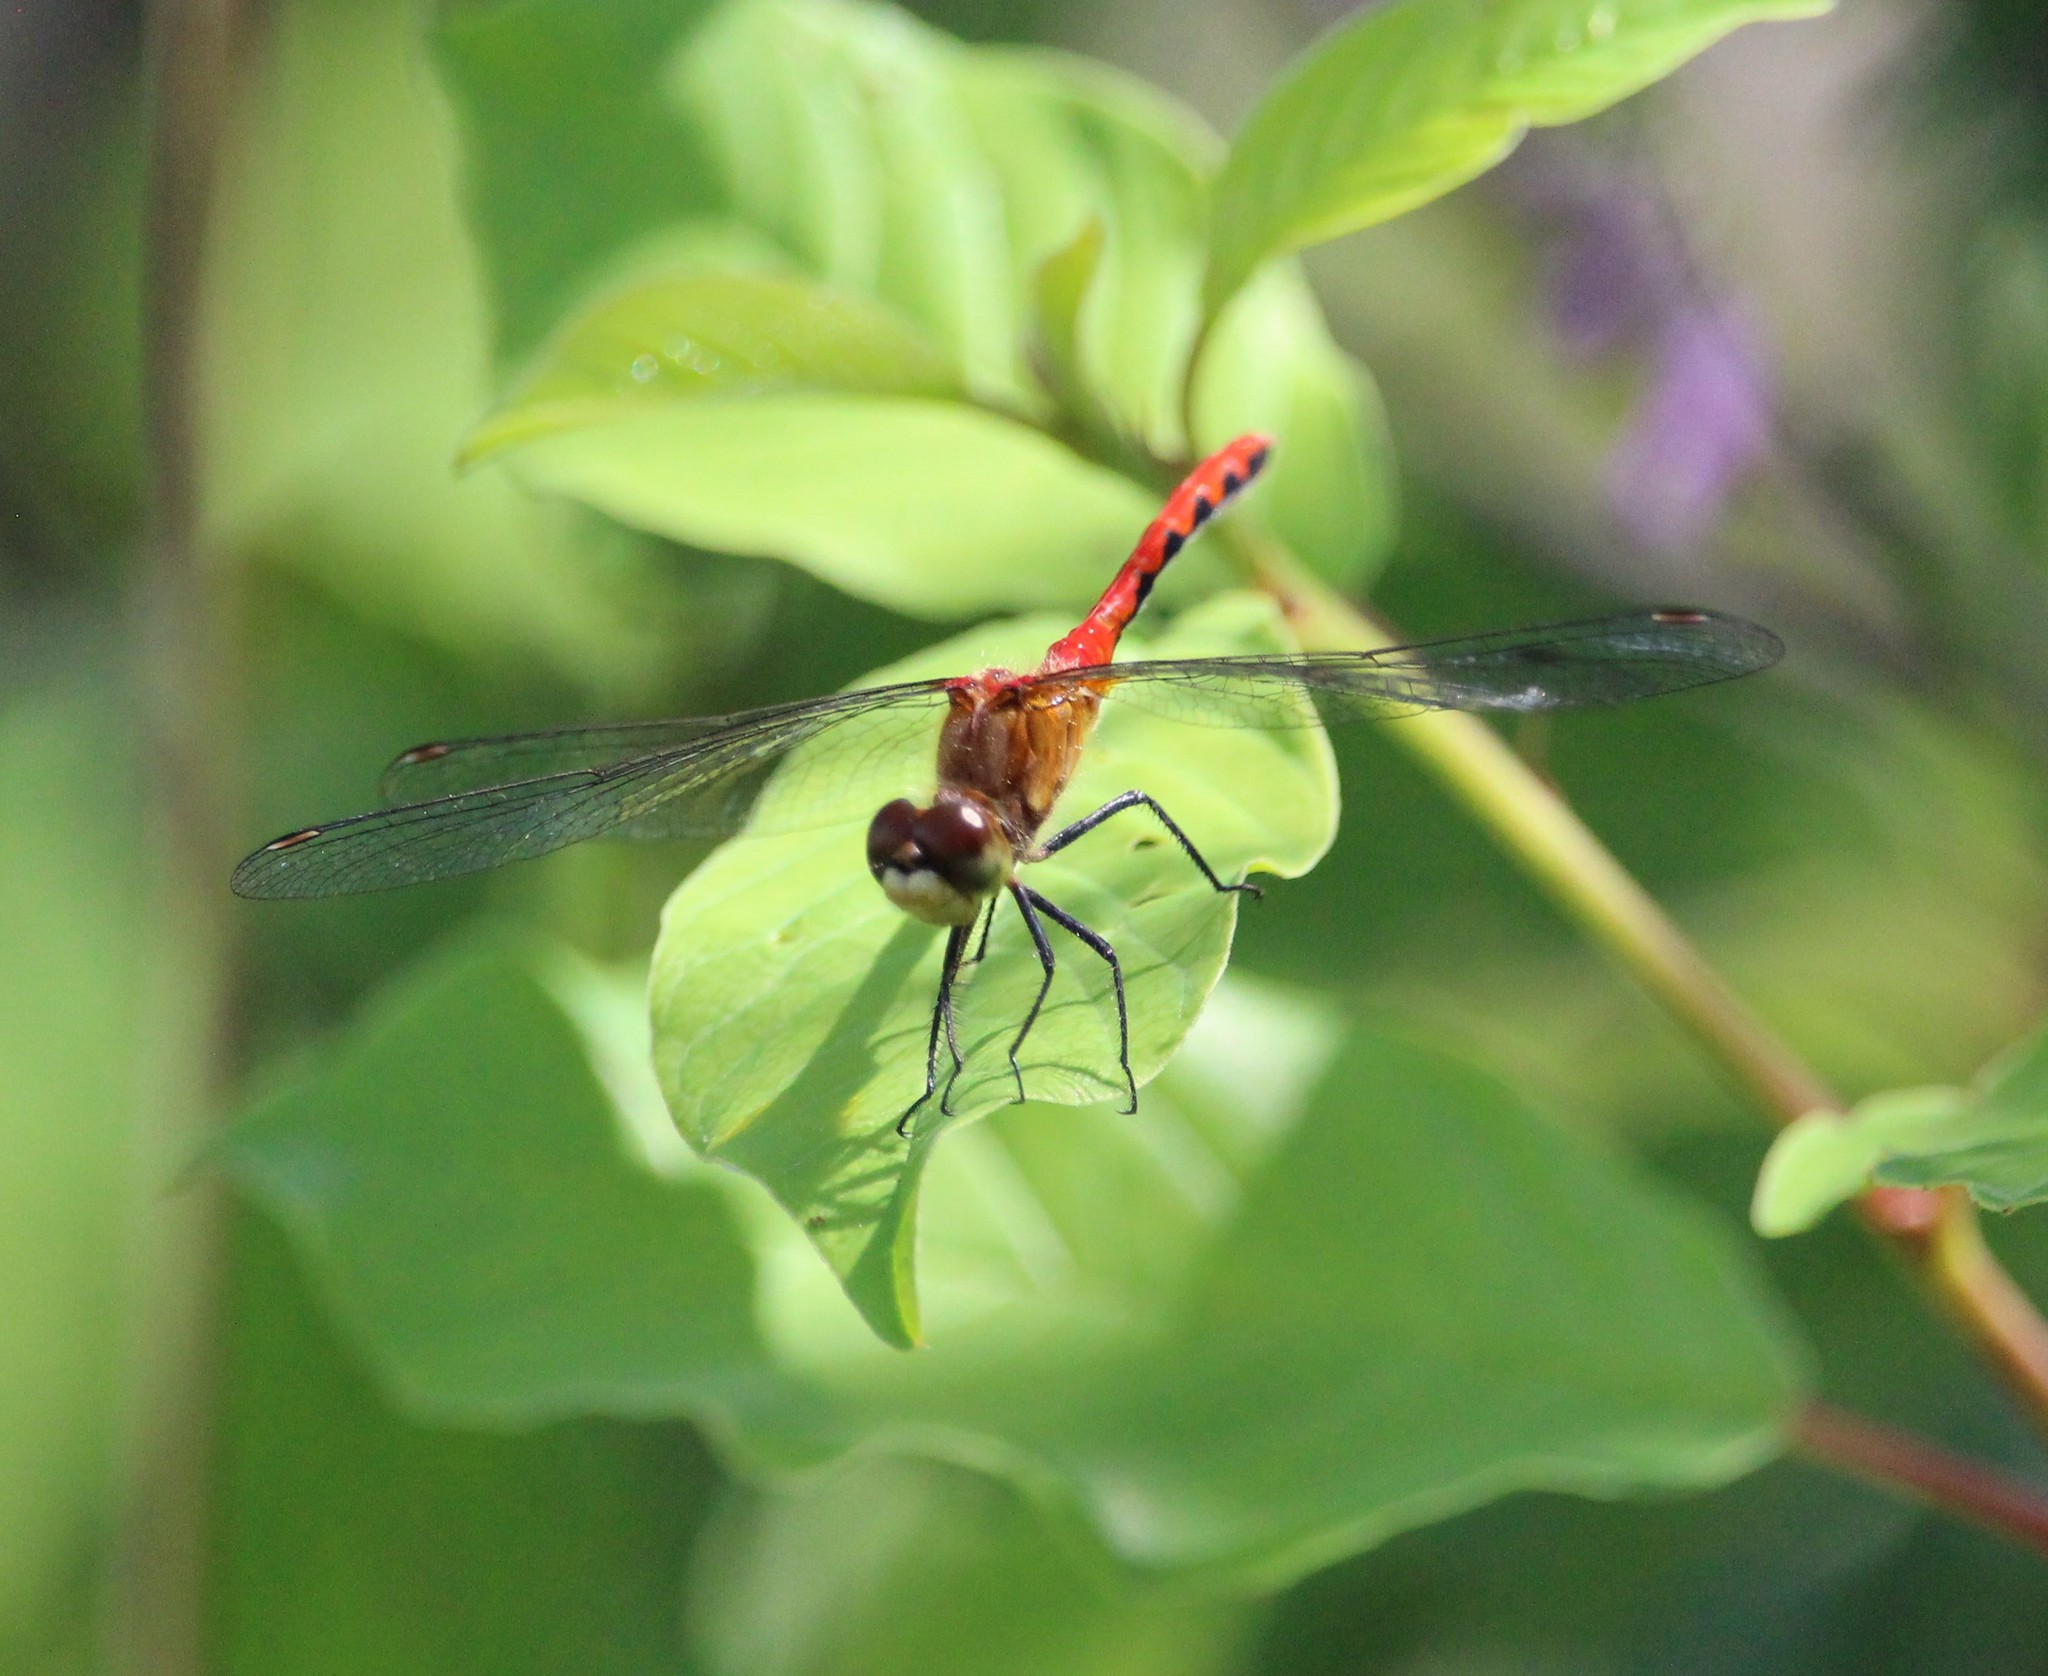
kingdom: Animalia
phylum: Arthropoda
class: Insecta
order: Odonata
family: Libellulidae
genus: Sympetrum
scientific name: Sympetrum obtrusum
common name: White-faced meadowhawk
